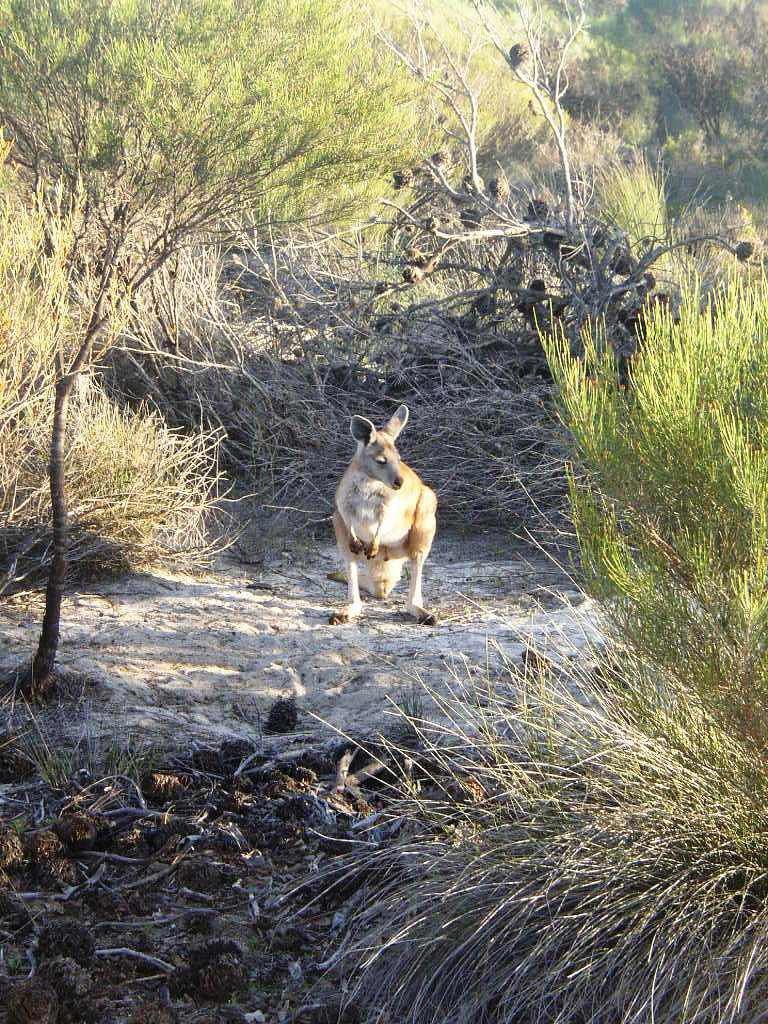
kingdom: Animalia
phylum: Chordata
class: Mammalia
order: Diprotodontia
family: Macropodidae
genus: Macropus
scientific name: Macropus robustus
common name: Eastern wallaroo
